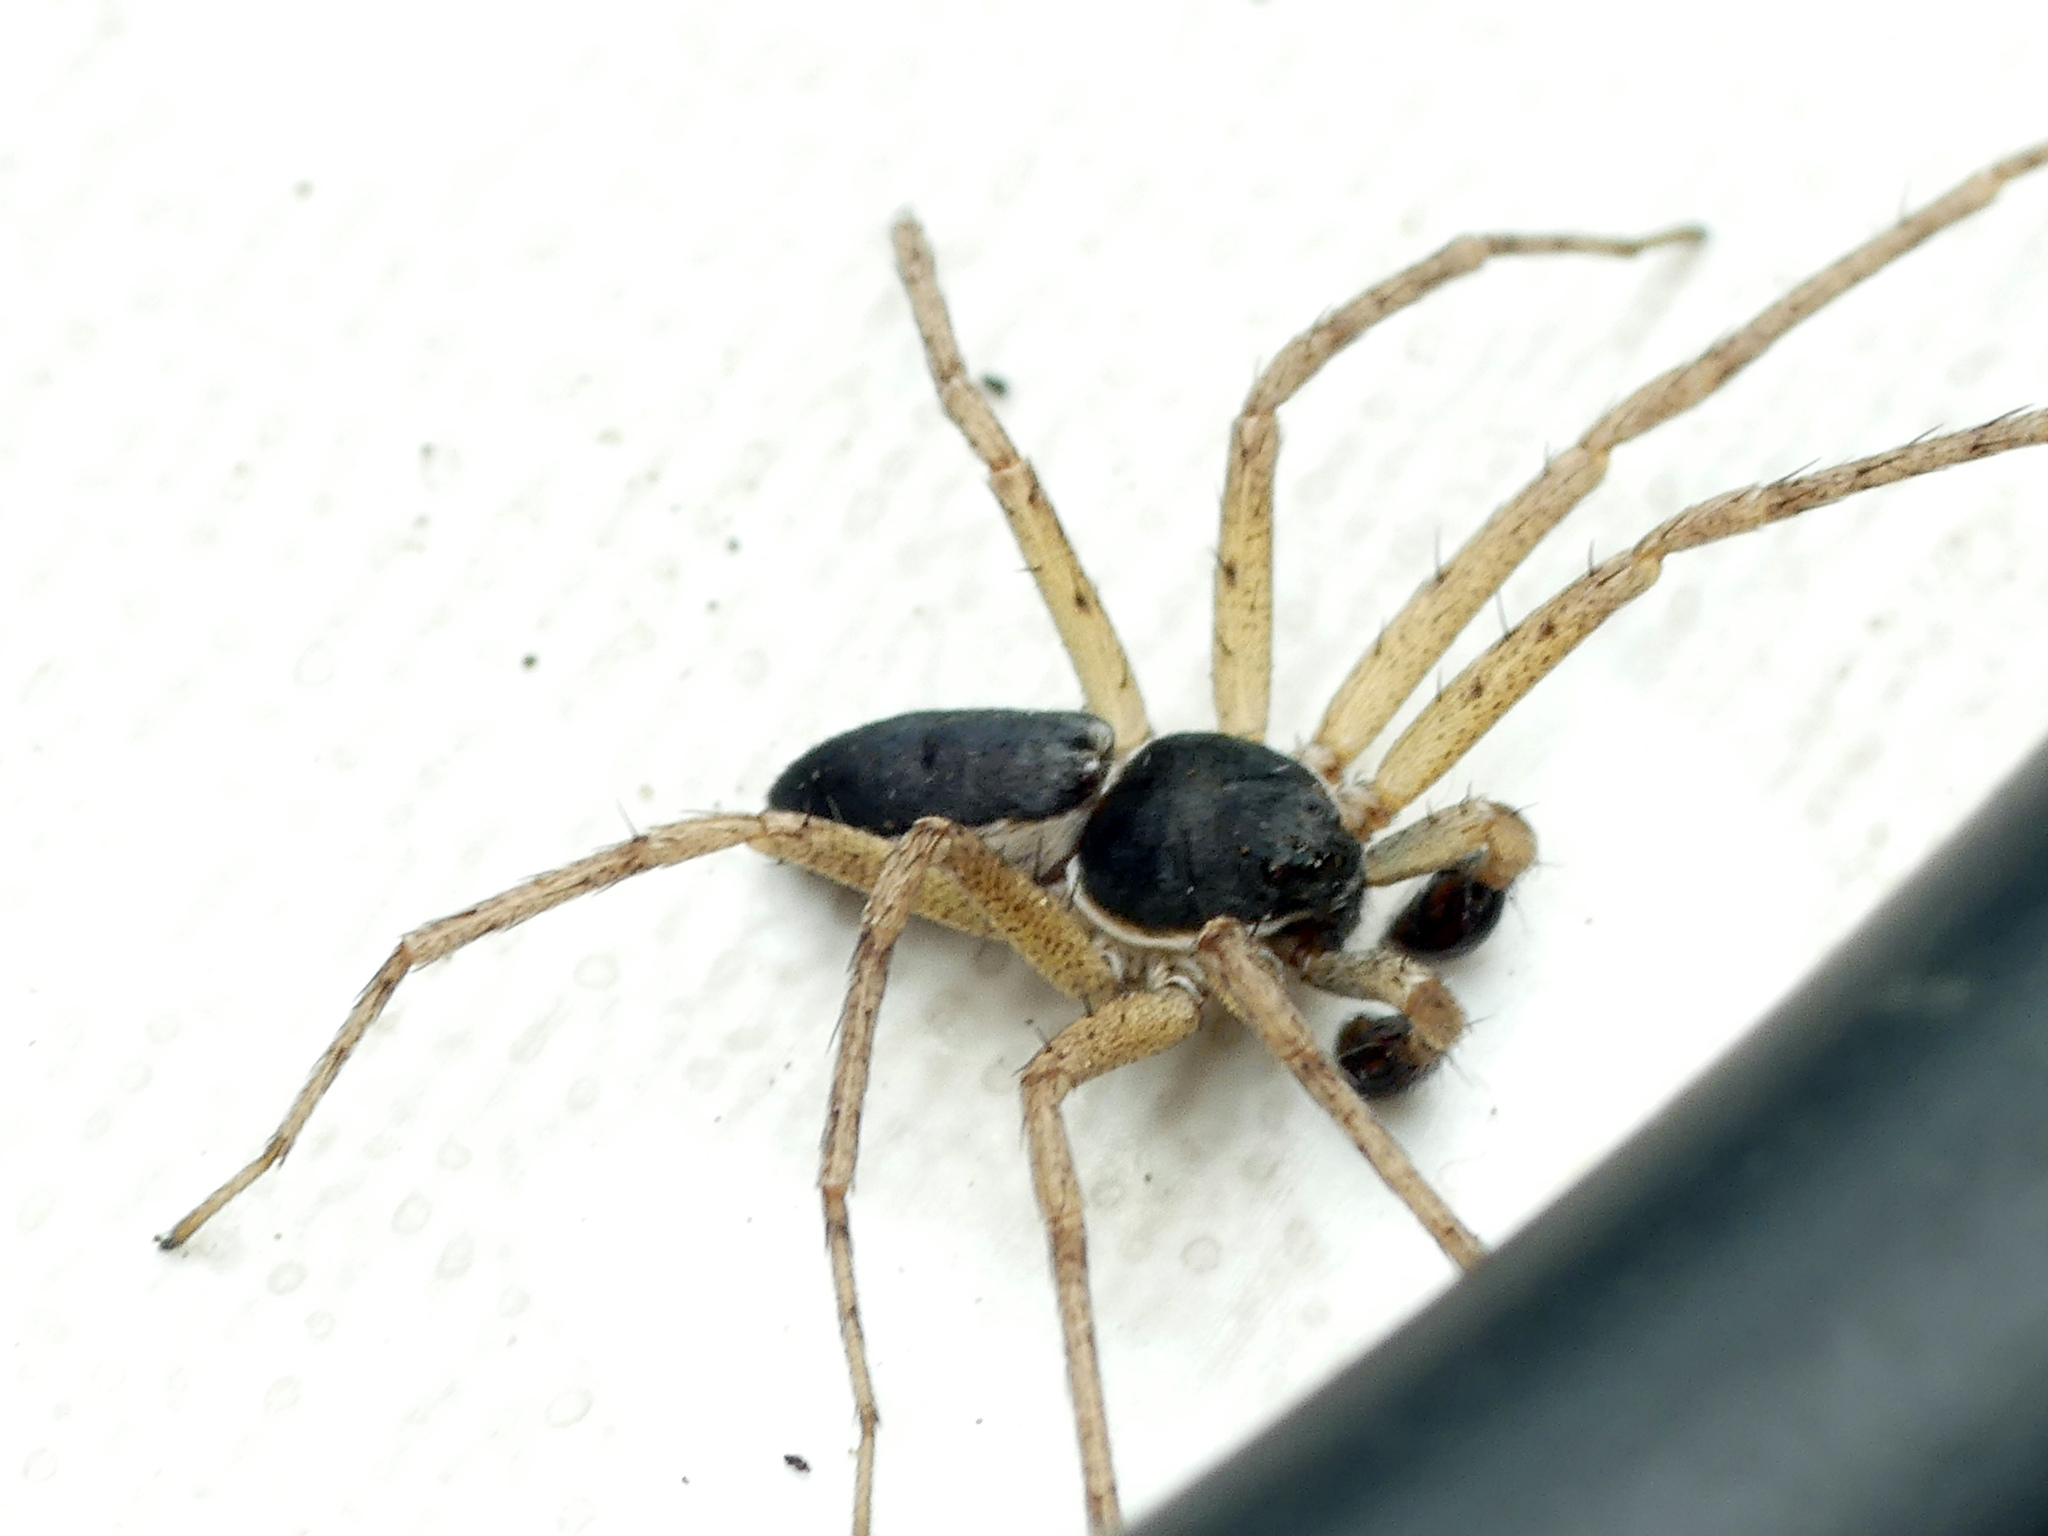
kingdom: Animalia
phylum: Arthropoda
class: Arachnida
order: Araneae
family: Philodromidae
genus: Philodromus
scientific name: Philodromus dispar
